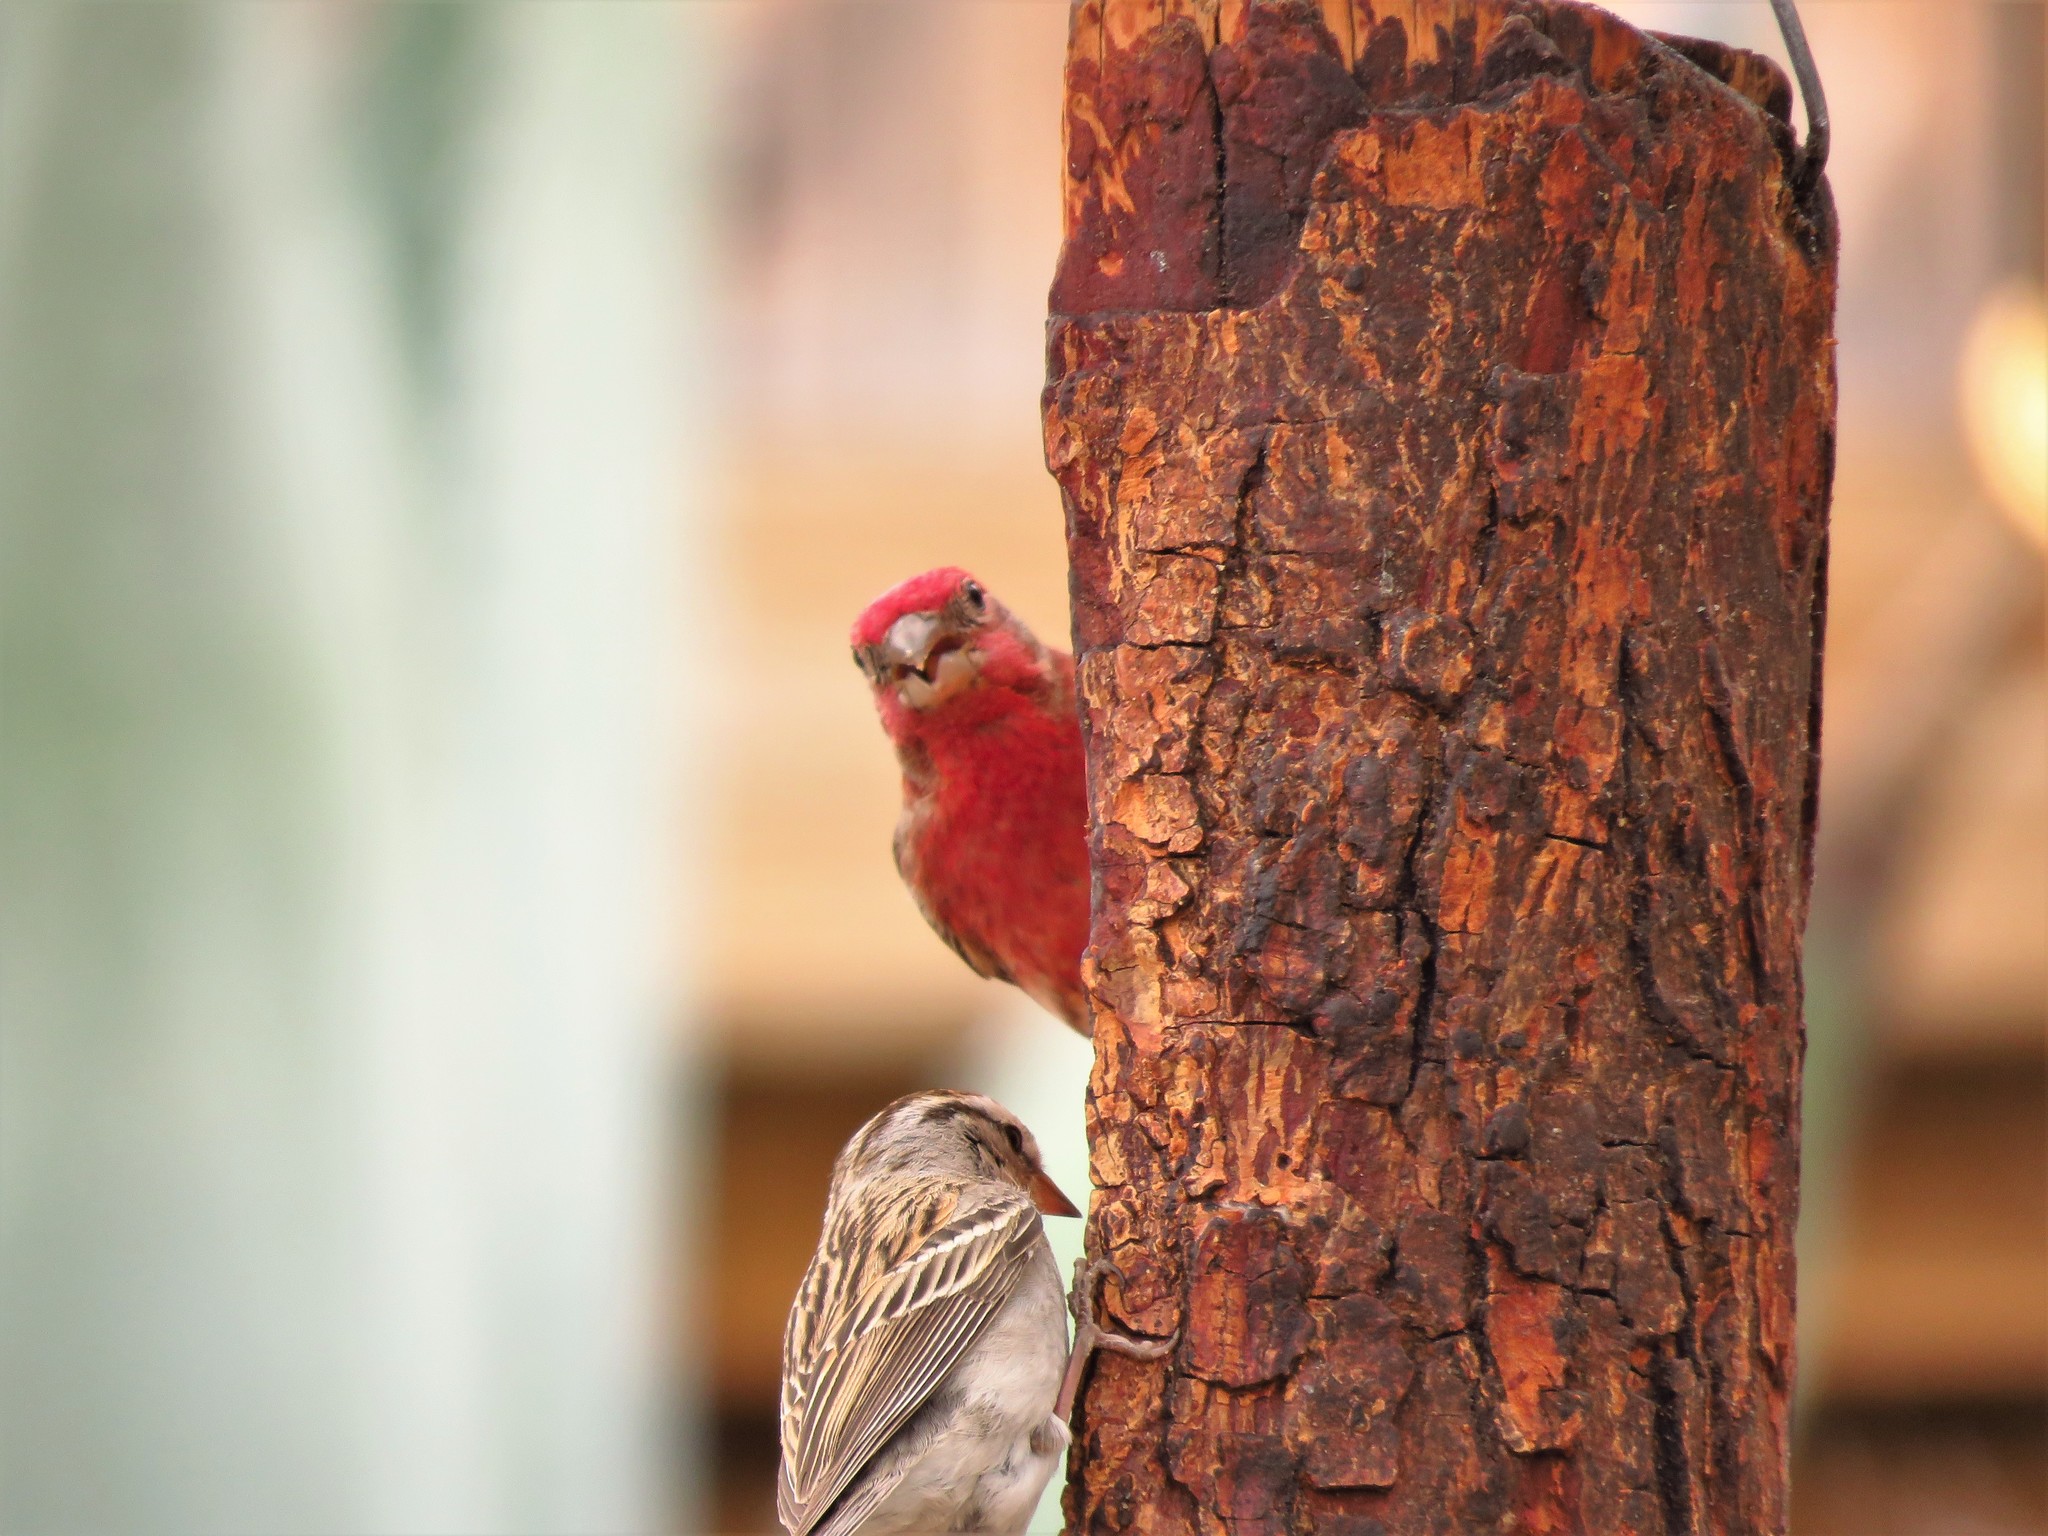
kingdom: Animalia
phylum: Chordata
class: Aves
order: Passeriformes
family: Fringillidae
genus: Haemorhous
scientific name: Haemorhous mexicanus
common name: House finch
